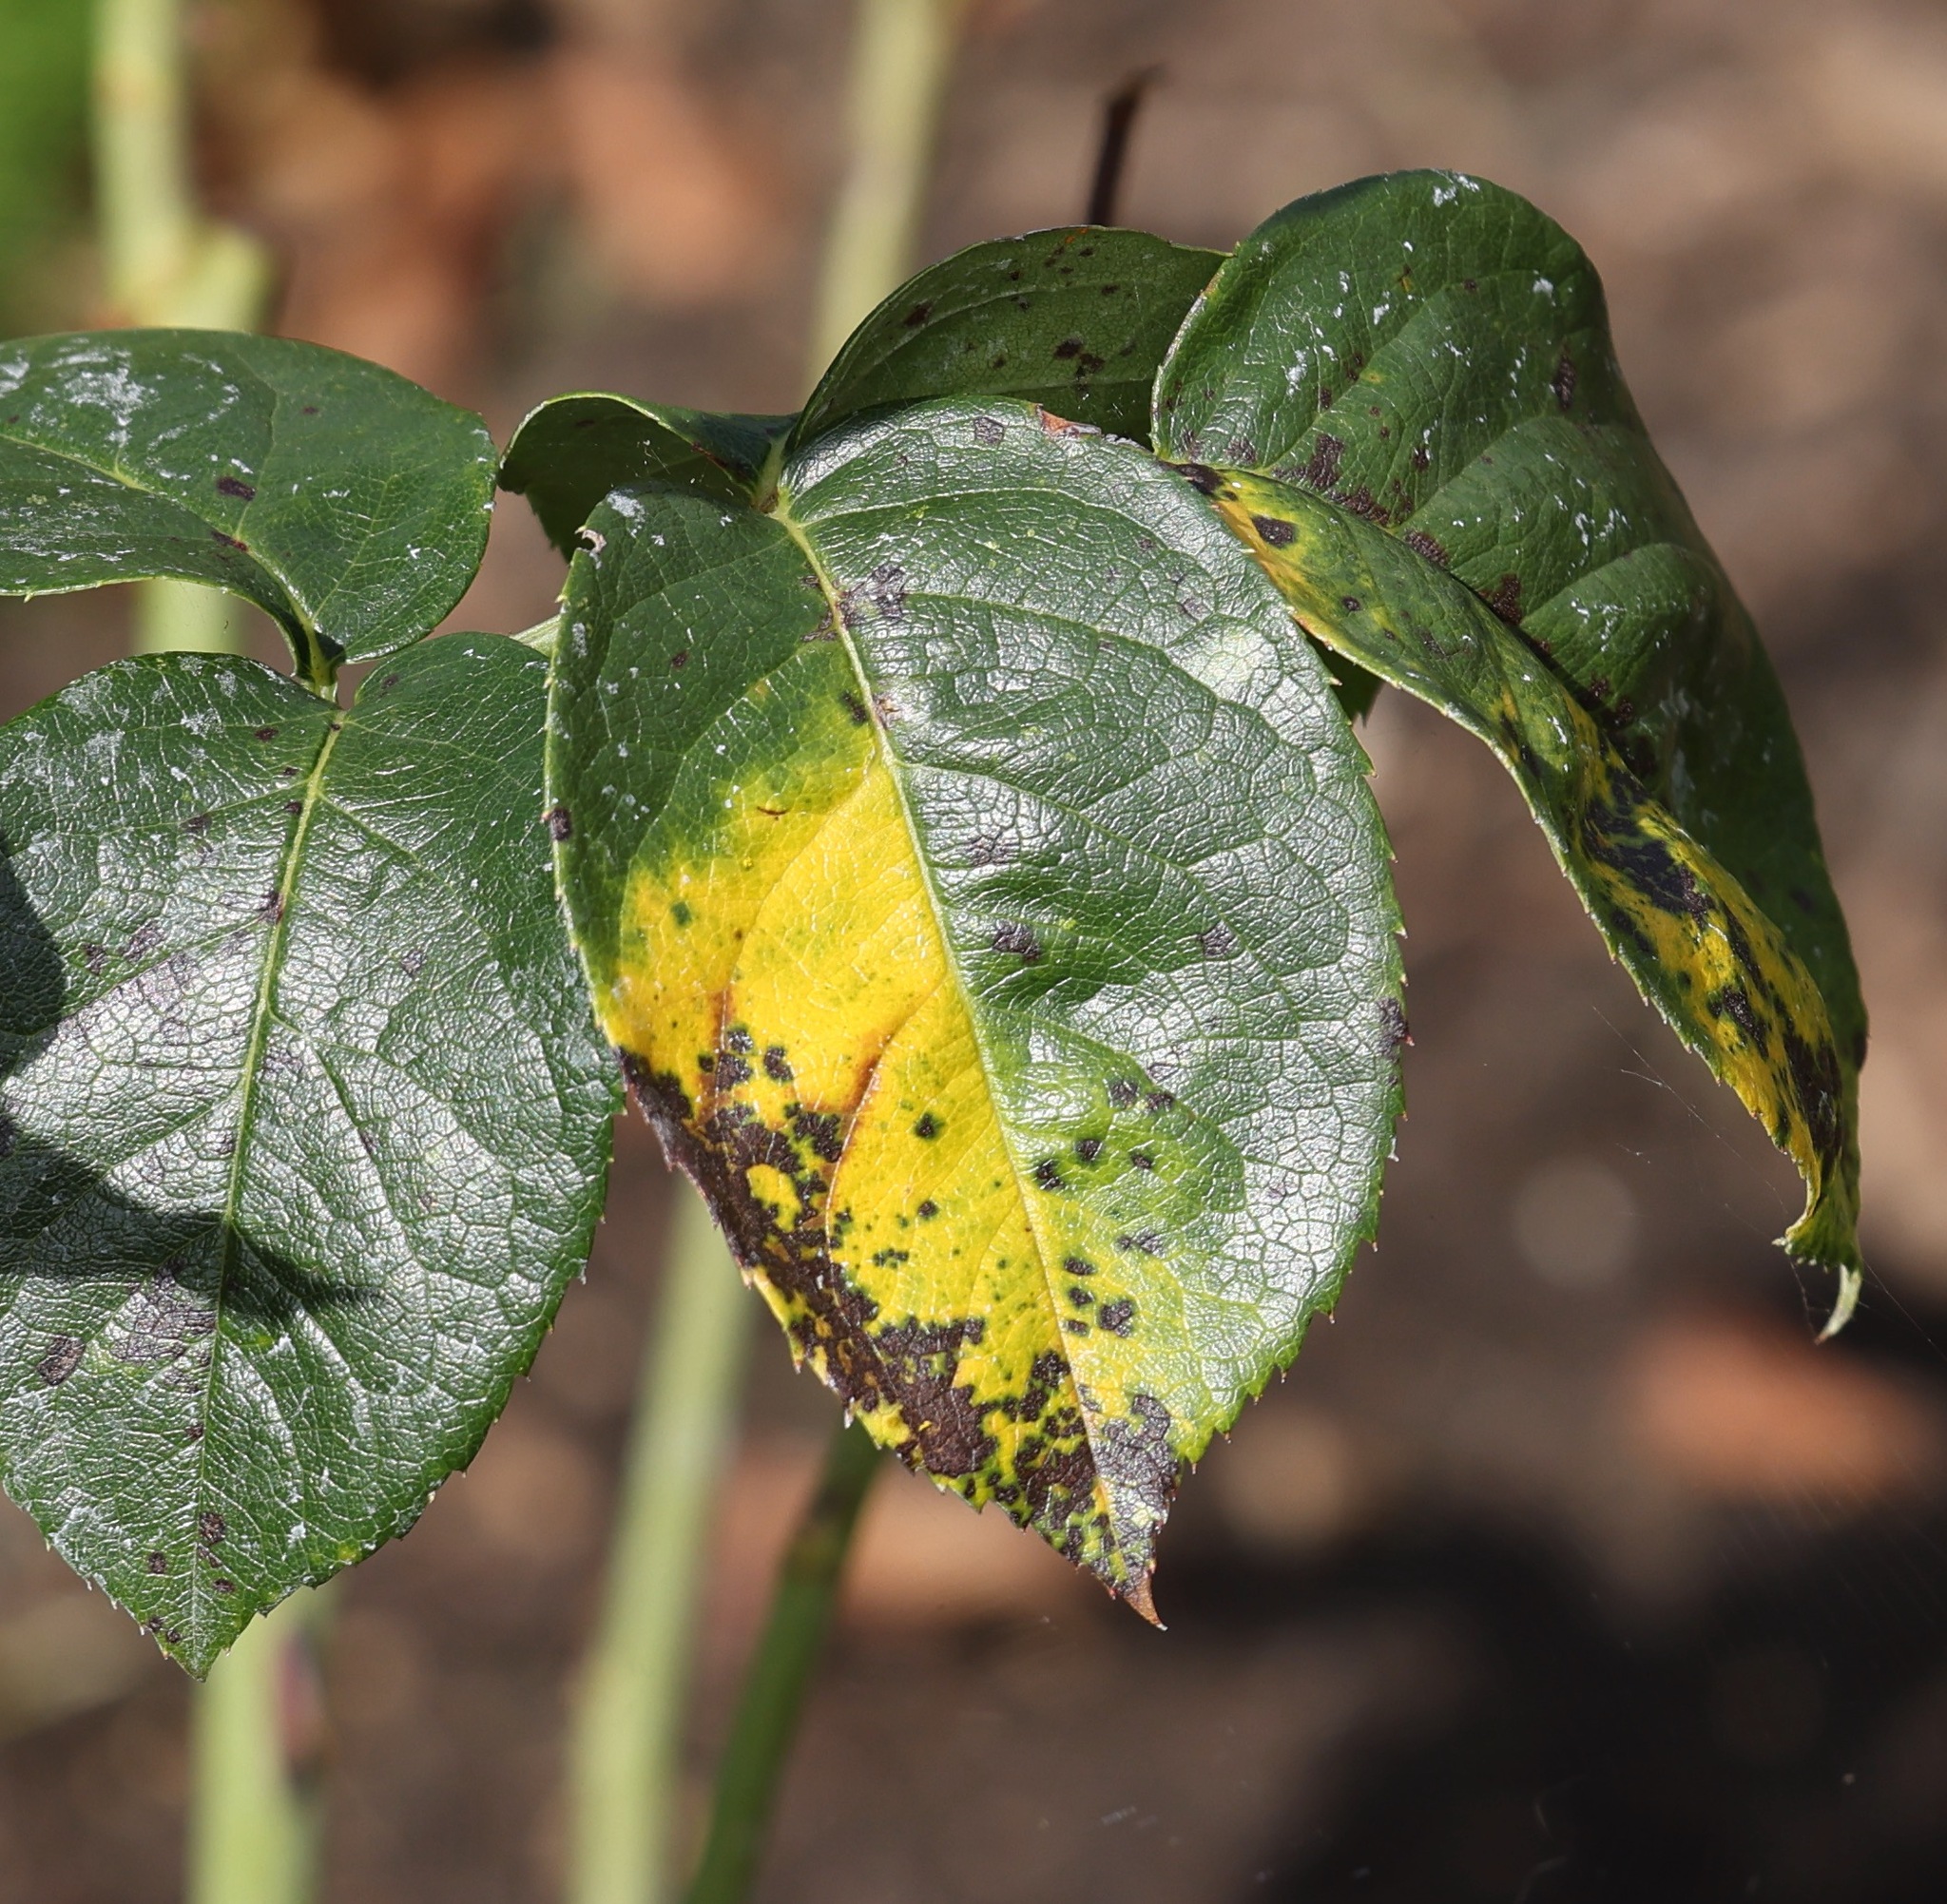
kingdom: Fungi
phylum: Ascomycota
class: Leotiomycetes
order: Helotiales
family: Drepanopezizaceae
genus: Diplocarpon
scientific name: Diplocarpon rosae
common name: Rose black-spot
